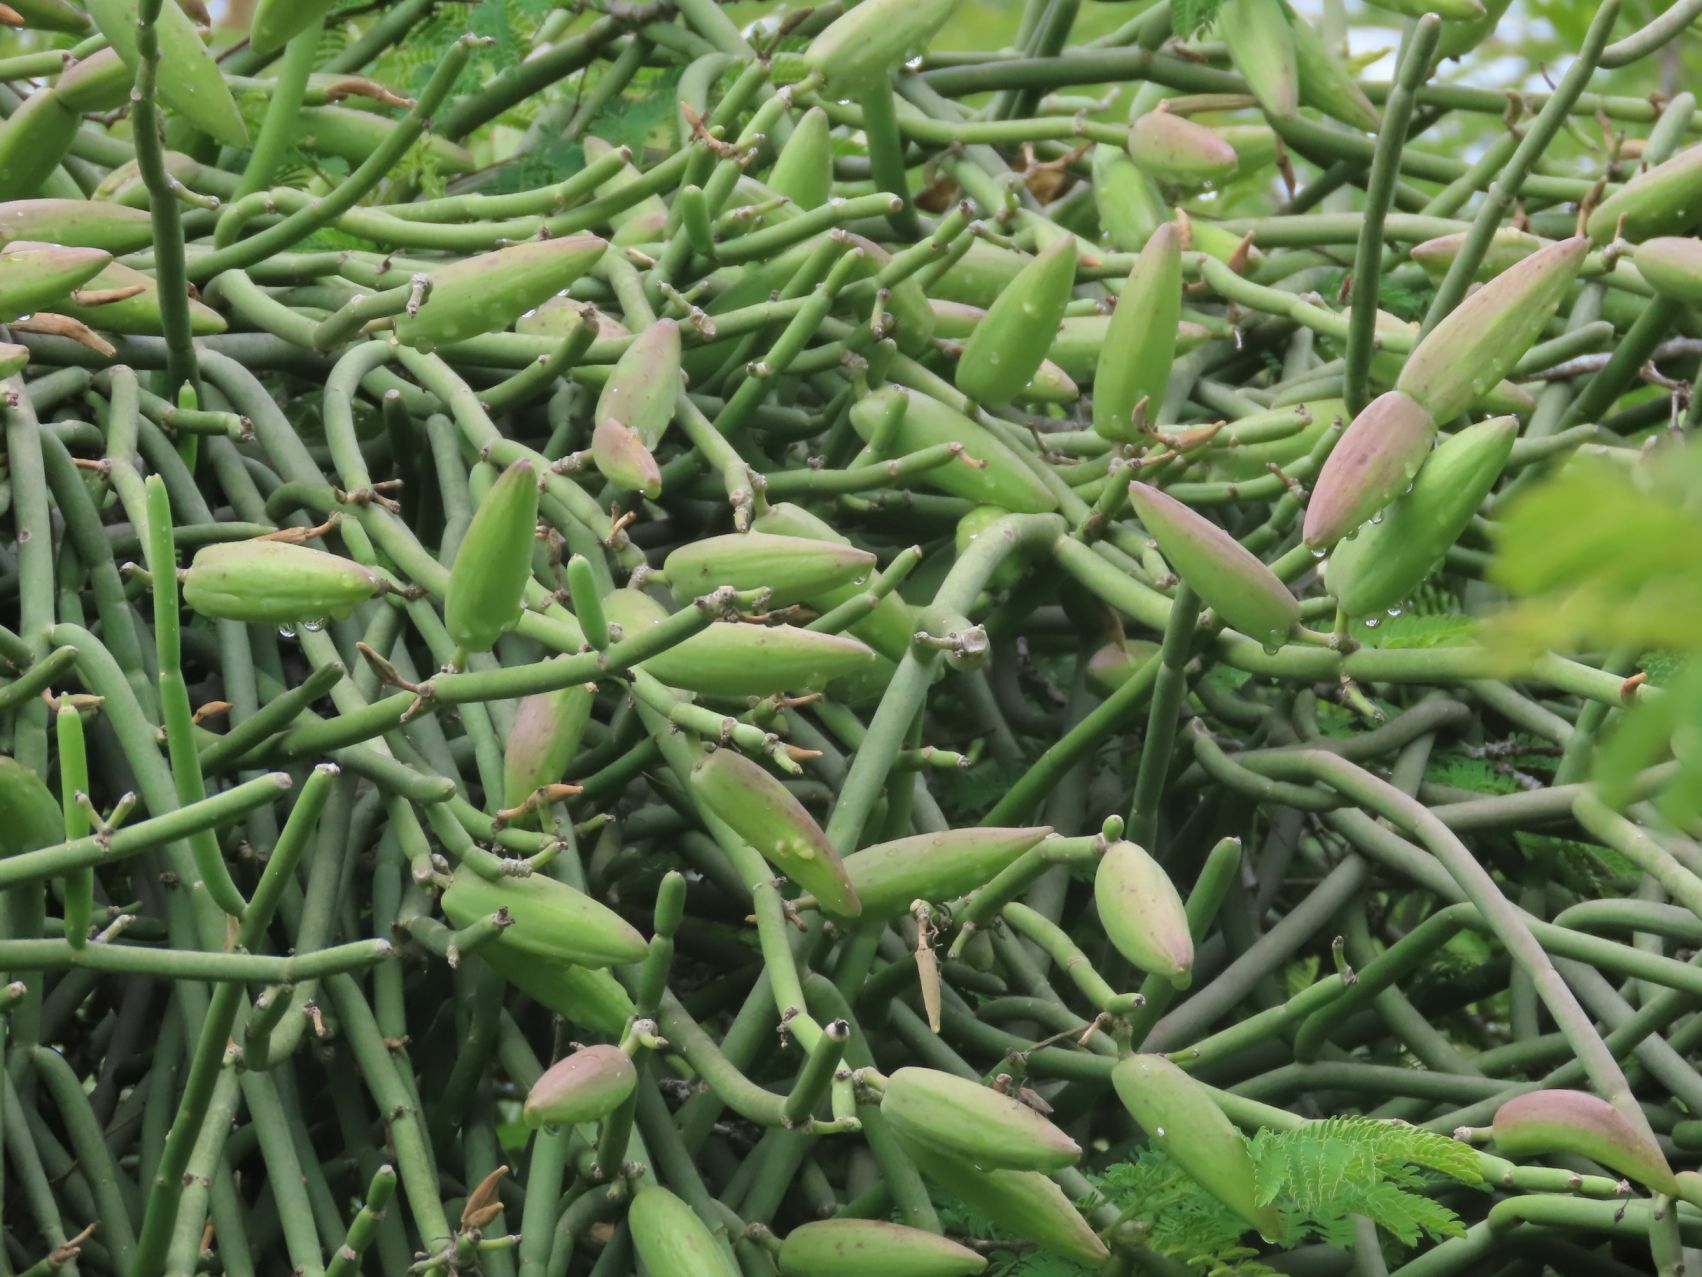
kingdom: Plantae
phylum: Tracheophyta
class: Magnoliopsida
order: Gentianales
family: Apocynaceae
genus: Cynanchum
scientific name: Cynanchum viminale
